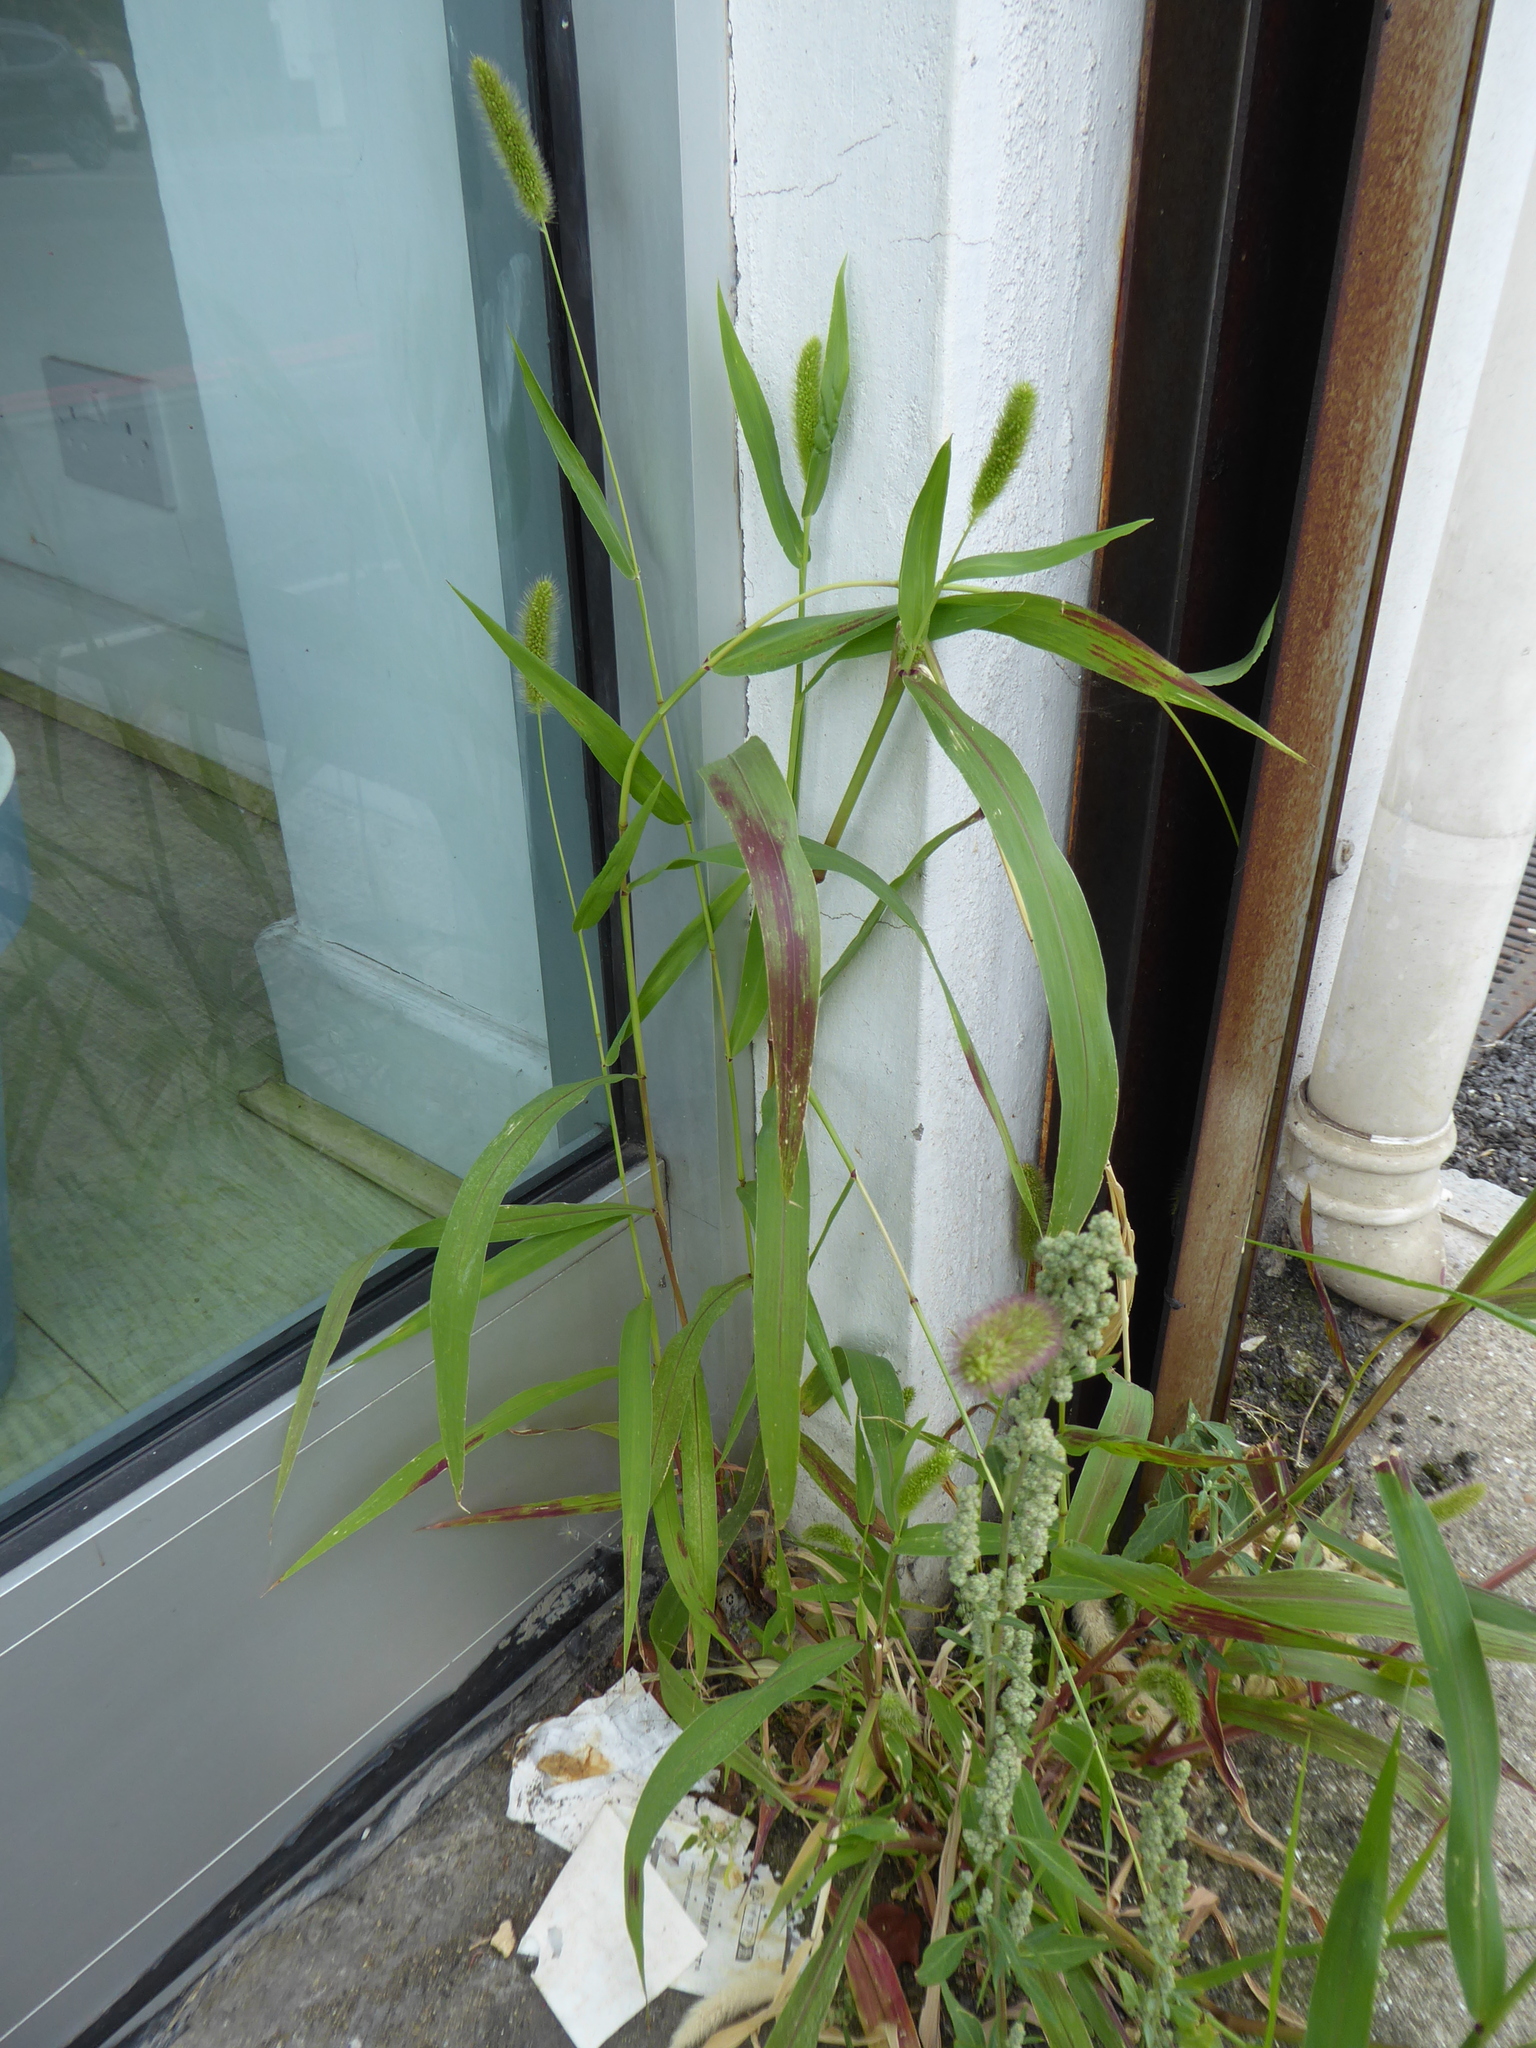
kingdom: Plantae
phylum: Tracheophyta
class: Liliopsida
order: Poales
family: Poaceae
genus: Setaria
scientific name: Setaria viridis
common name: Green bristlegrass
